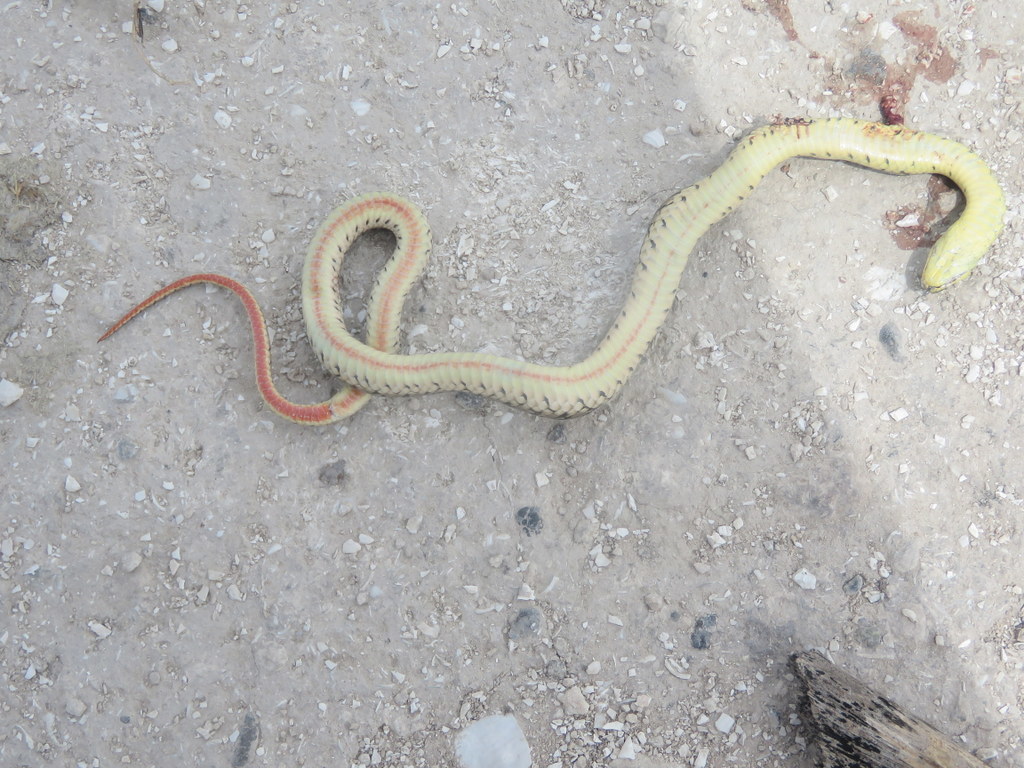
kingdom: Animalia
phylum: Chordata
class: Squamata
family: Colubridae
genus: Lygophis
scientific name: Lygophis anomalus
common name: English common name not available
